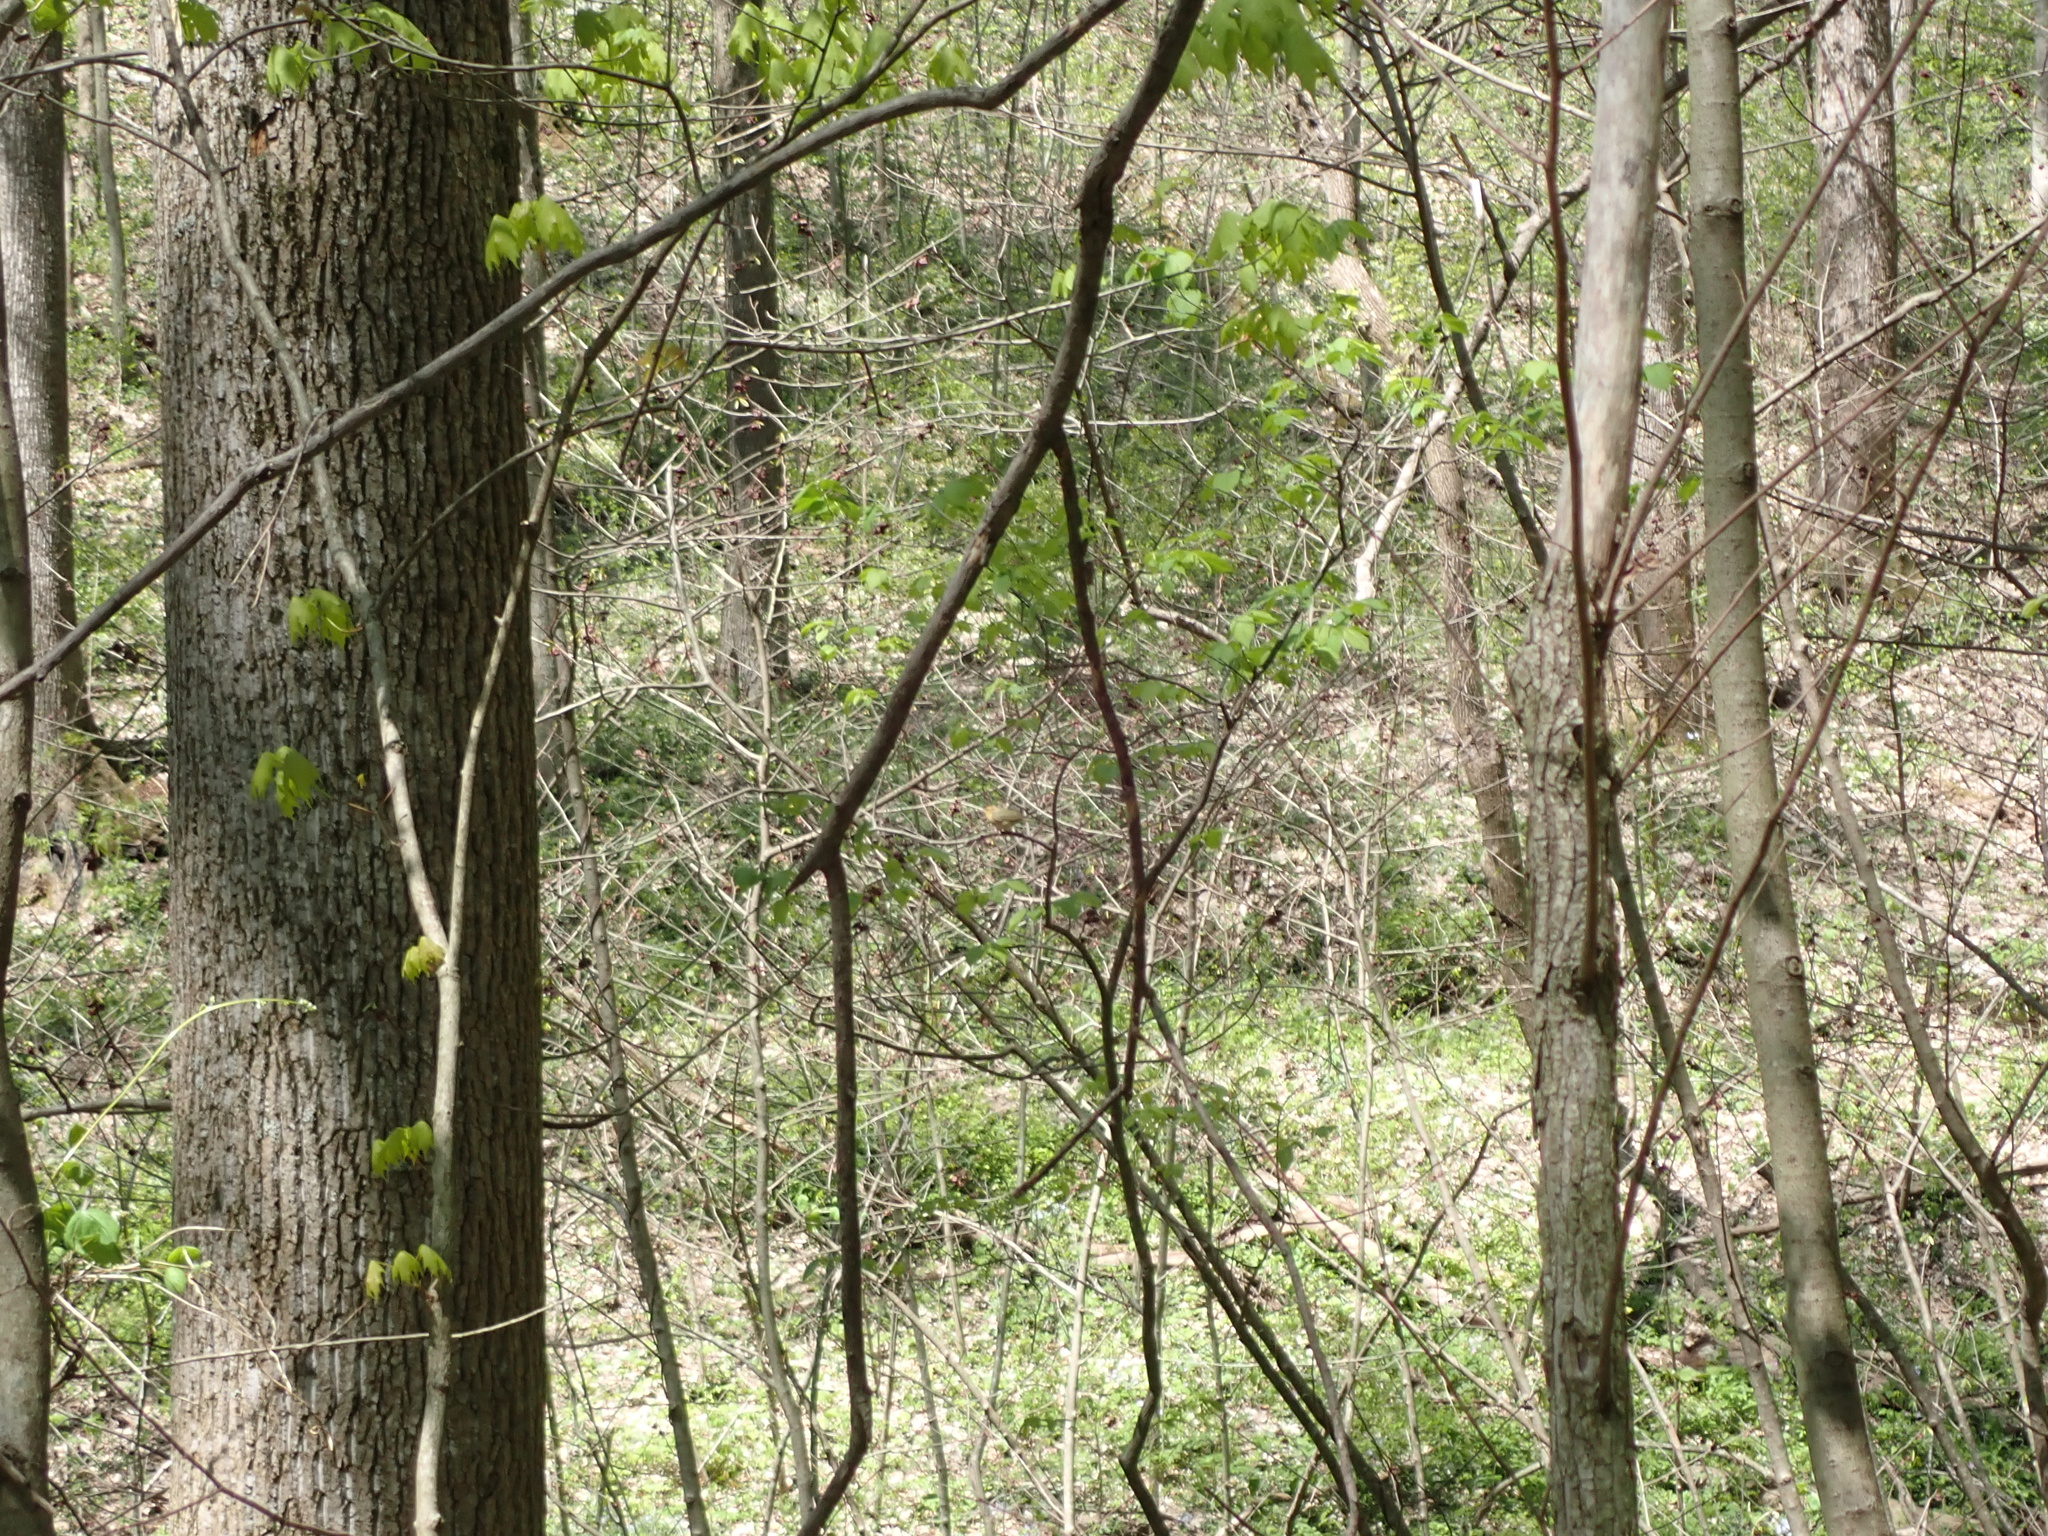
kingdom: Animalia
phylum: Chordata
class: Aves
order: Passeriformes
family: Parulidae
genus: Helmitheros
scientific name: Helmitheros vermivorum
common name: Worm-eating warbler
